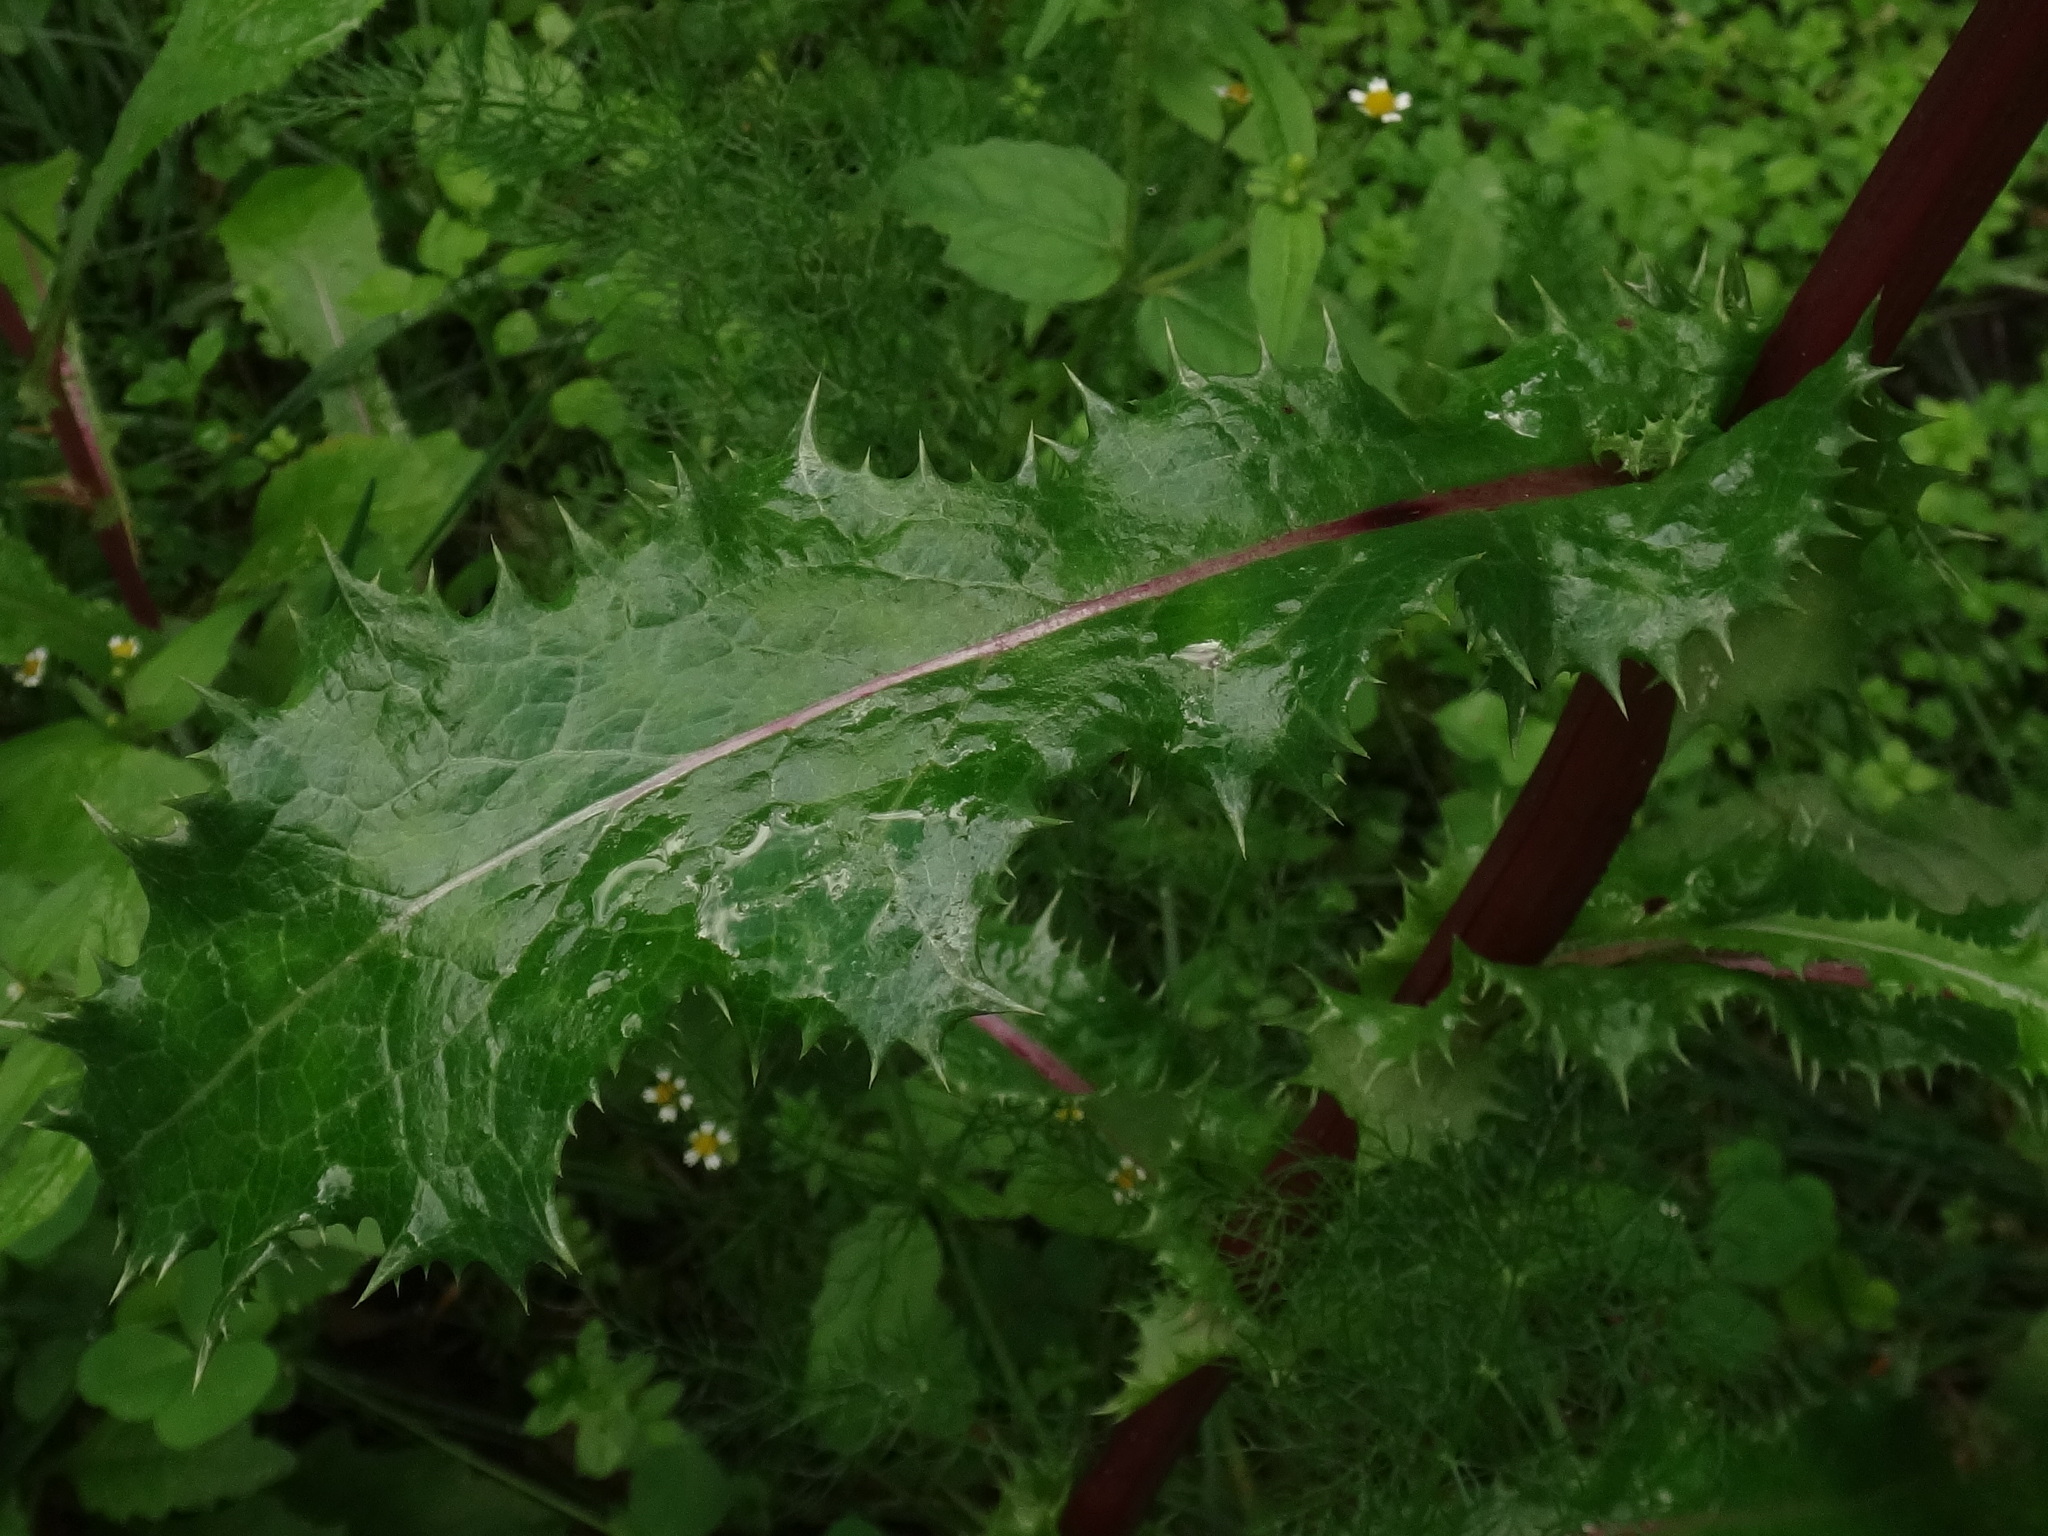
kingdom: Plantae
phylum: Tracheophyta
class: Magnoliopsida
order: Asterales
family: Asteraceae
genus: Sonchus
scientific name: Sonchus asper
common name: Prickly sow-thistle
